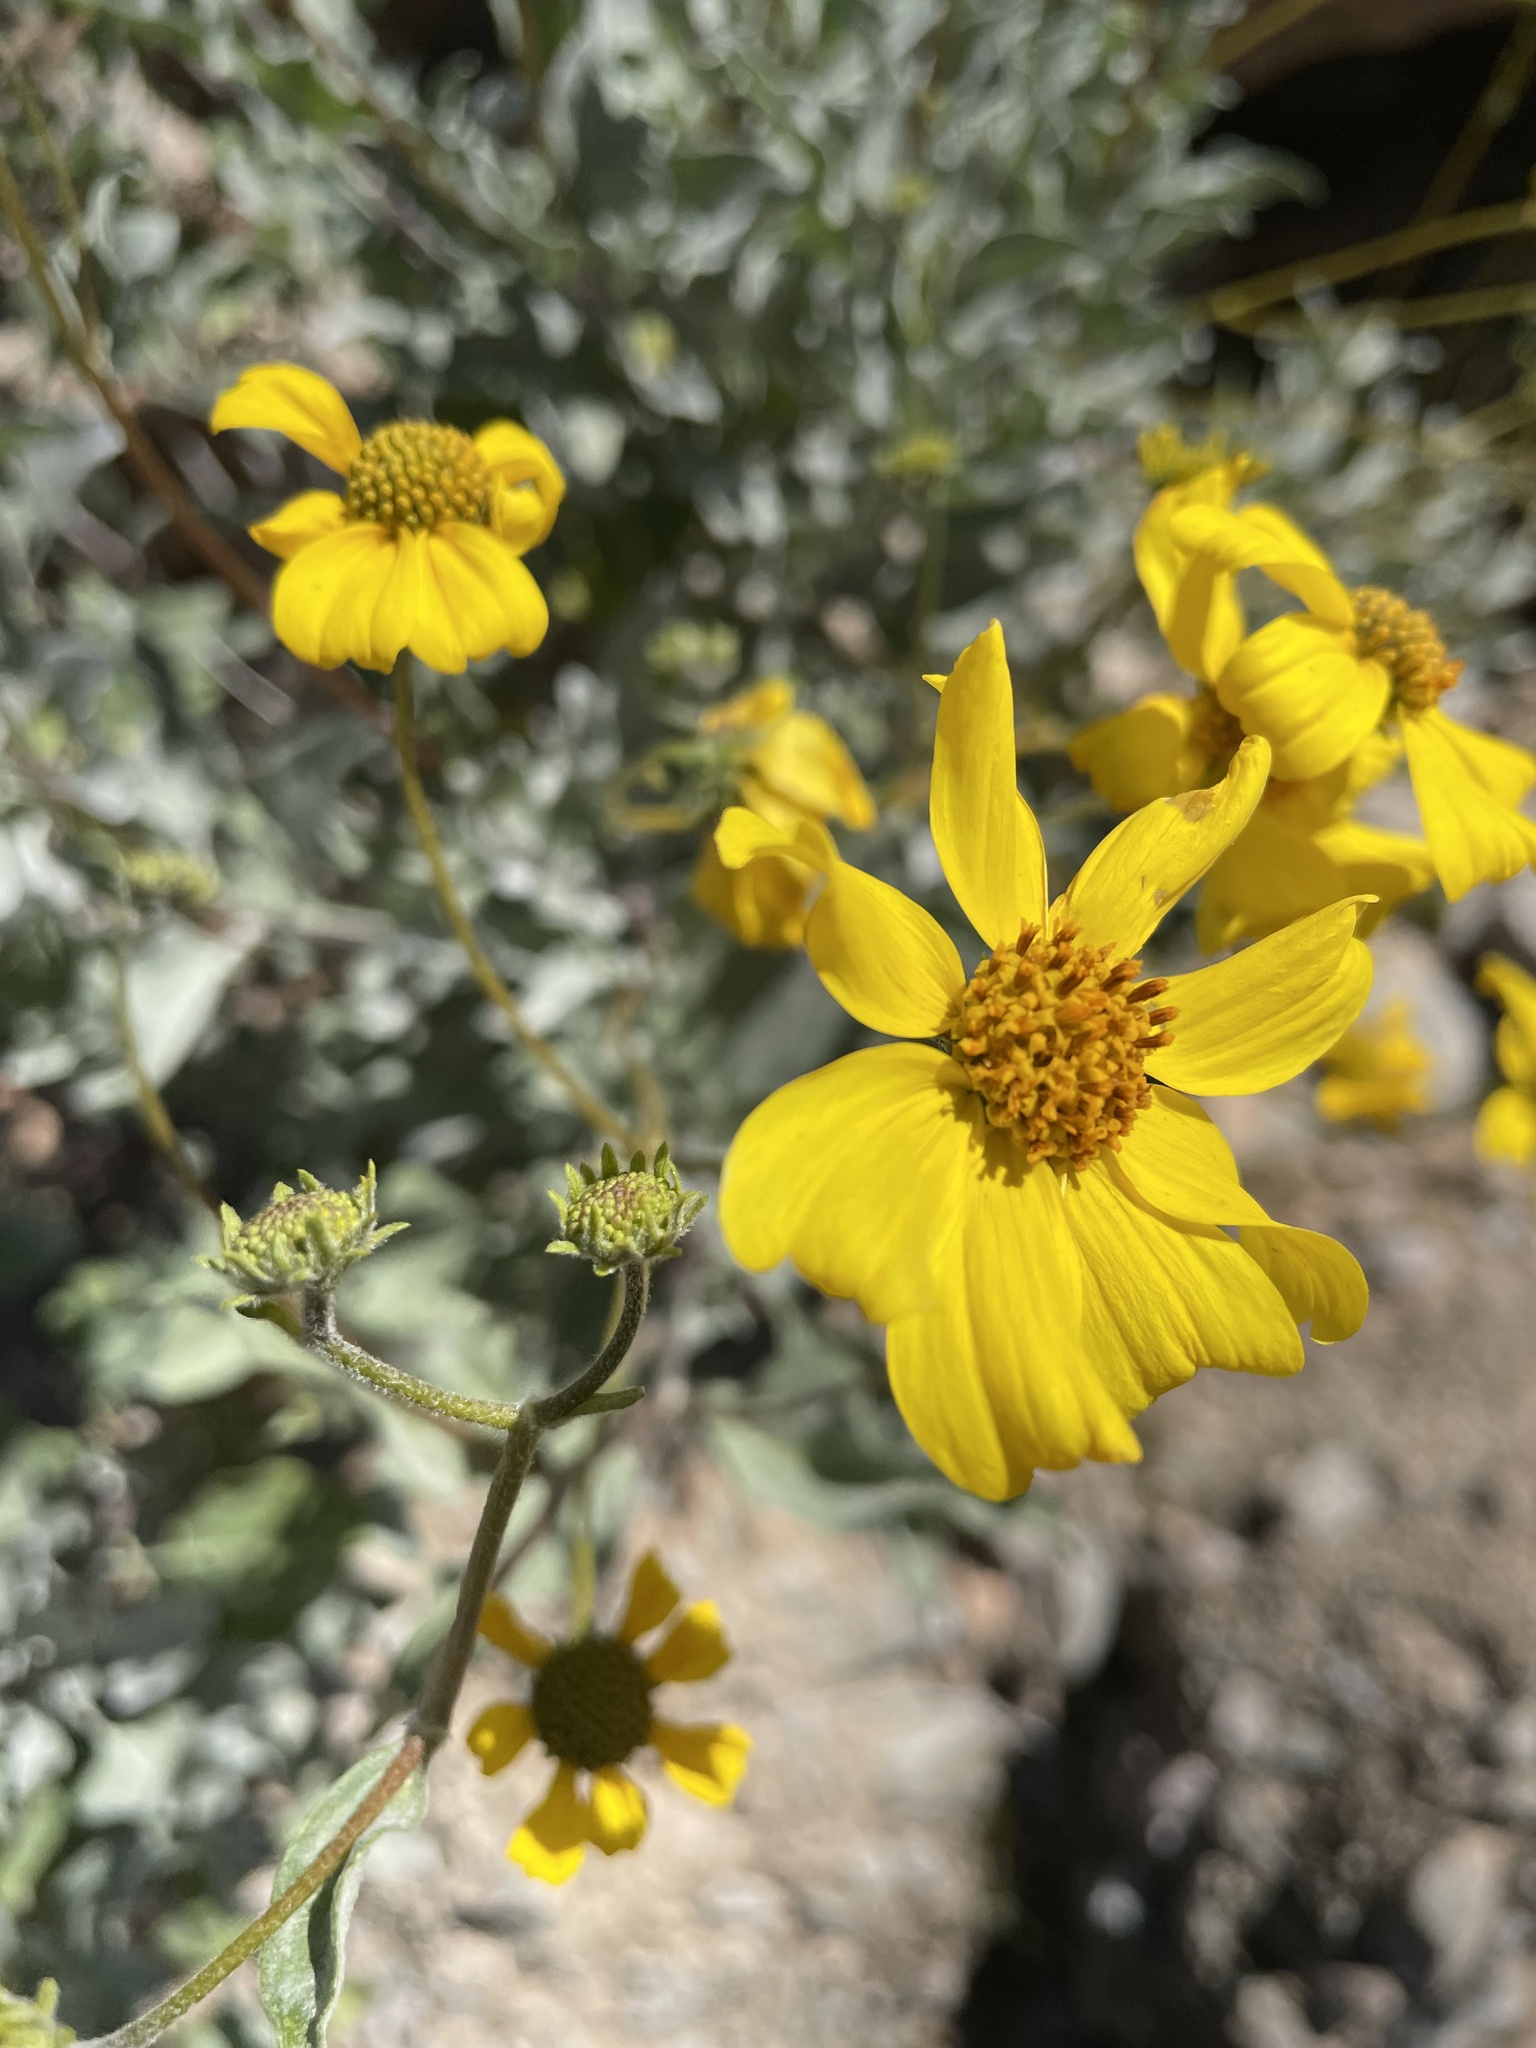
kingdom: Plantae
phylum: Tracheophyta
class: Magnoliopsida
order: Asterales
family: Asteraceae
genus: Encelia
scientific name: Encelia farinosa
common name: Brittlebush
